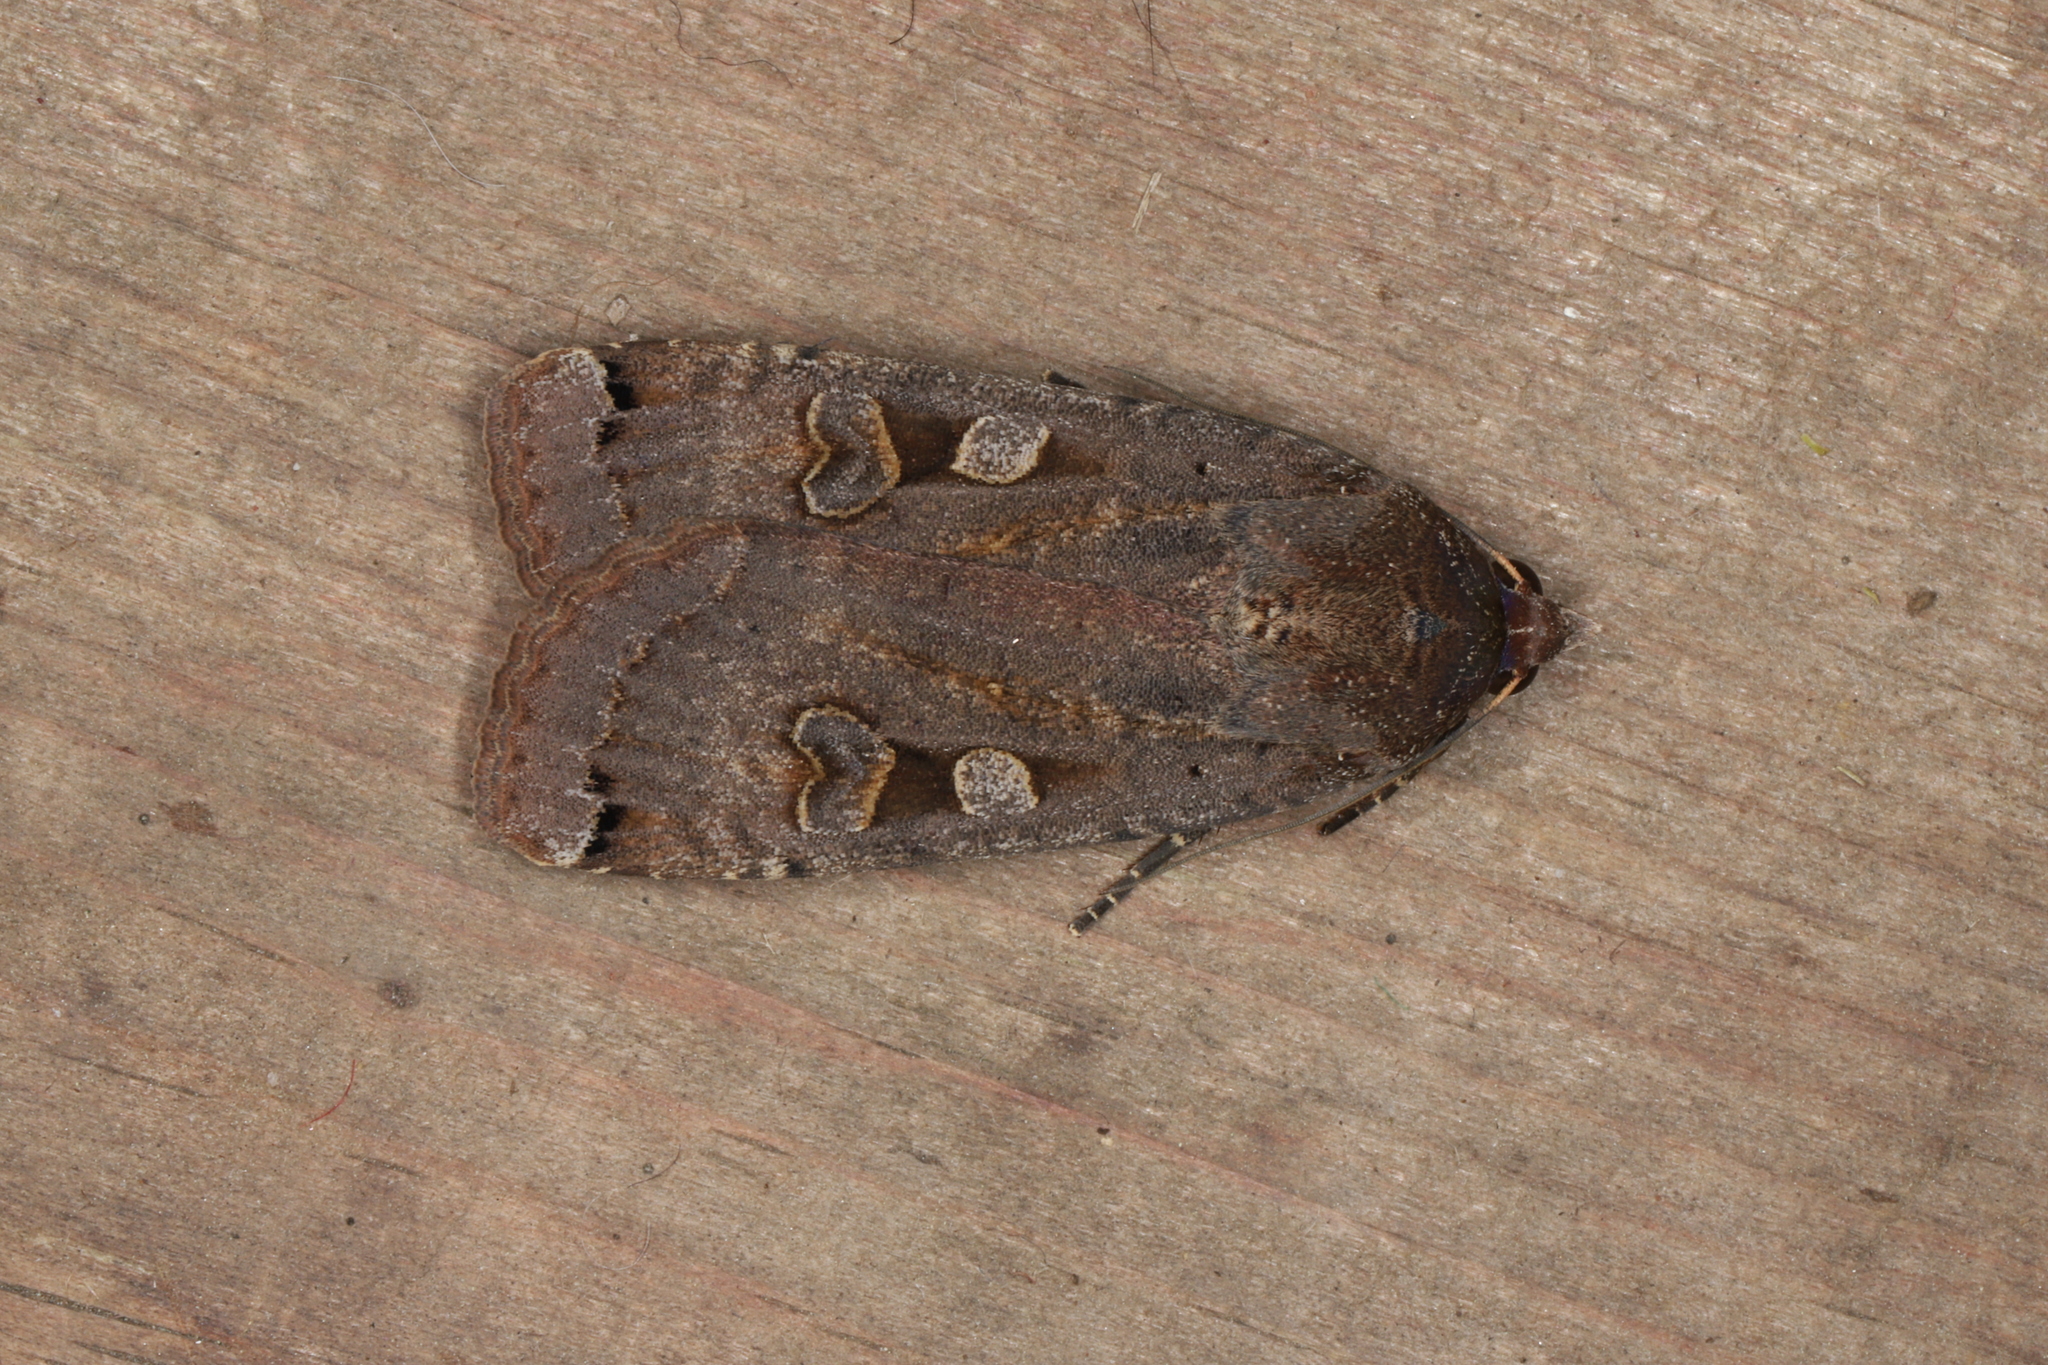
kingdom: Animalia
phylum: Arthropoda
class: Insecta
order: Lepidoptera
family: Noctuidae
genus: Noctua
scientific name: Noctua pronuba
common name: Large yellow underwing
